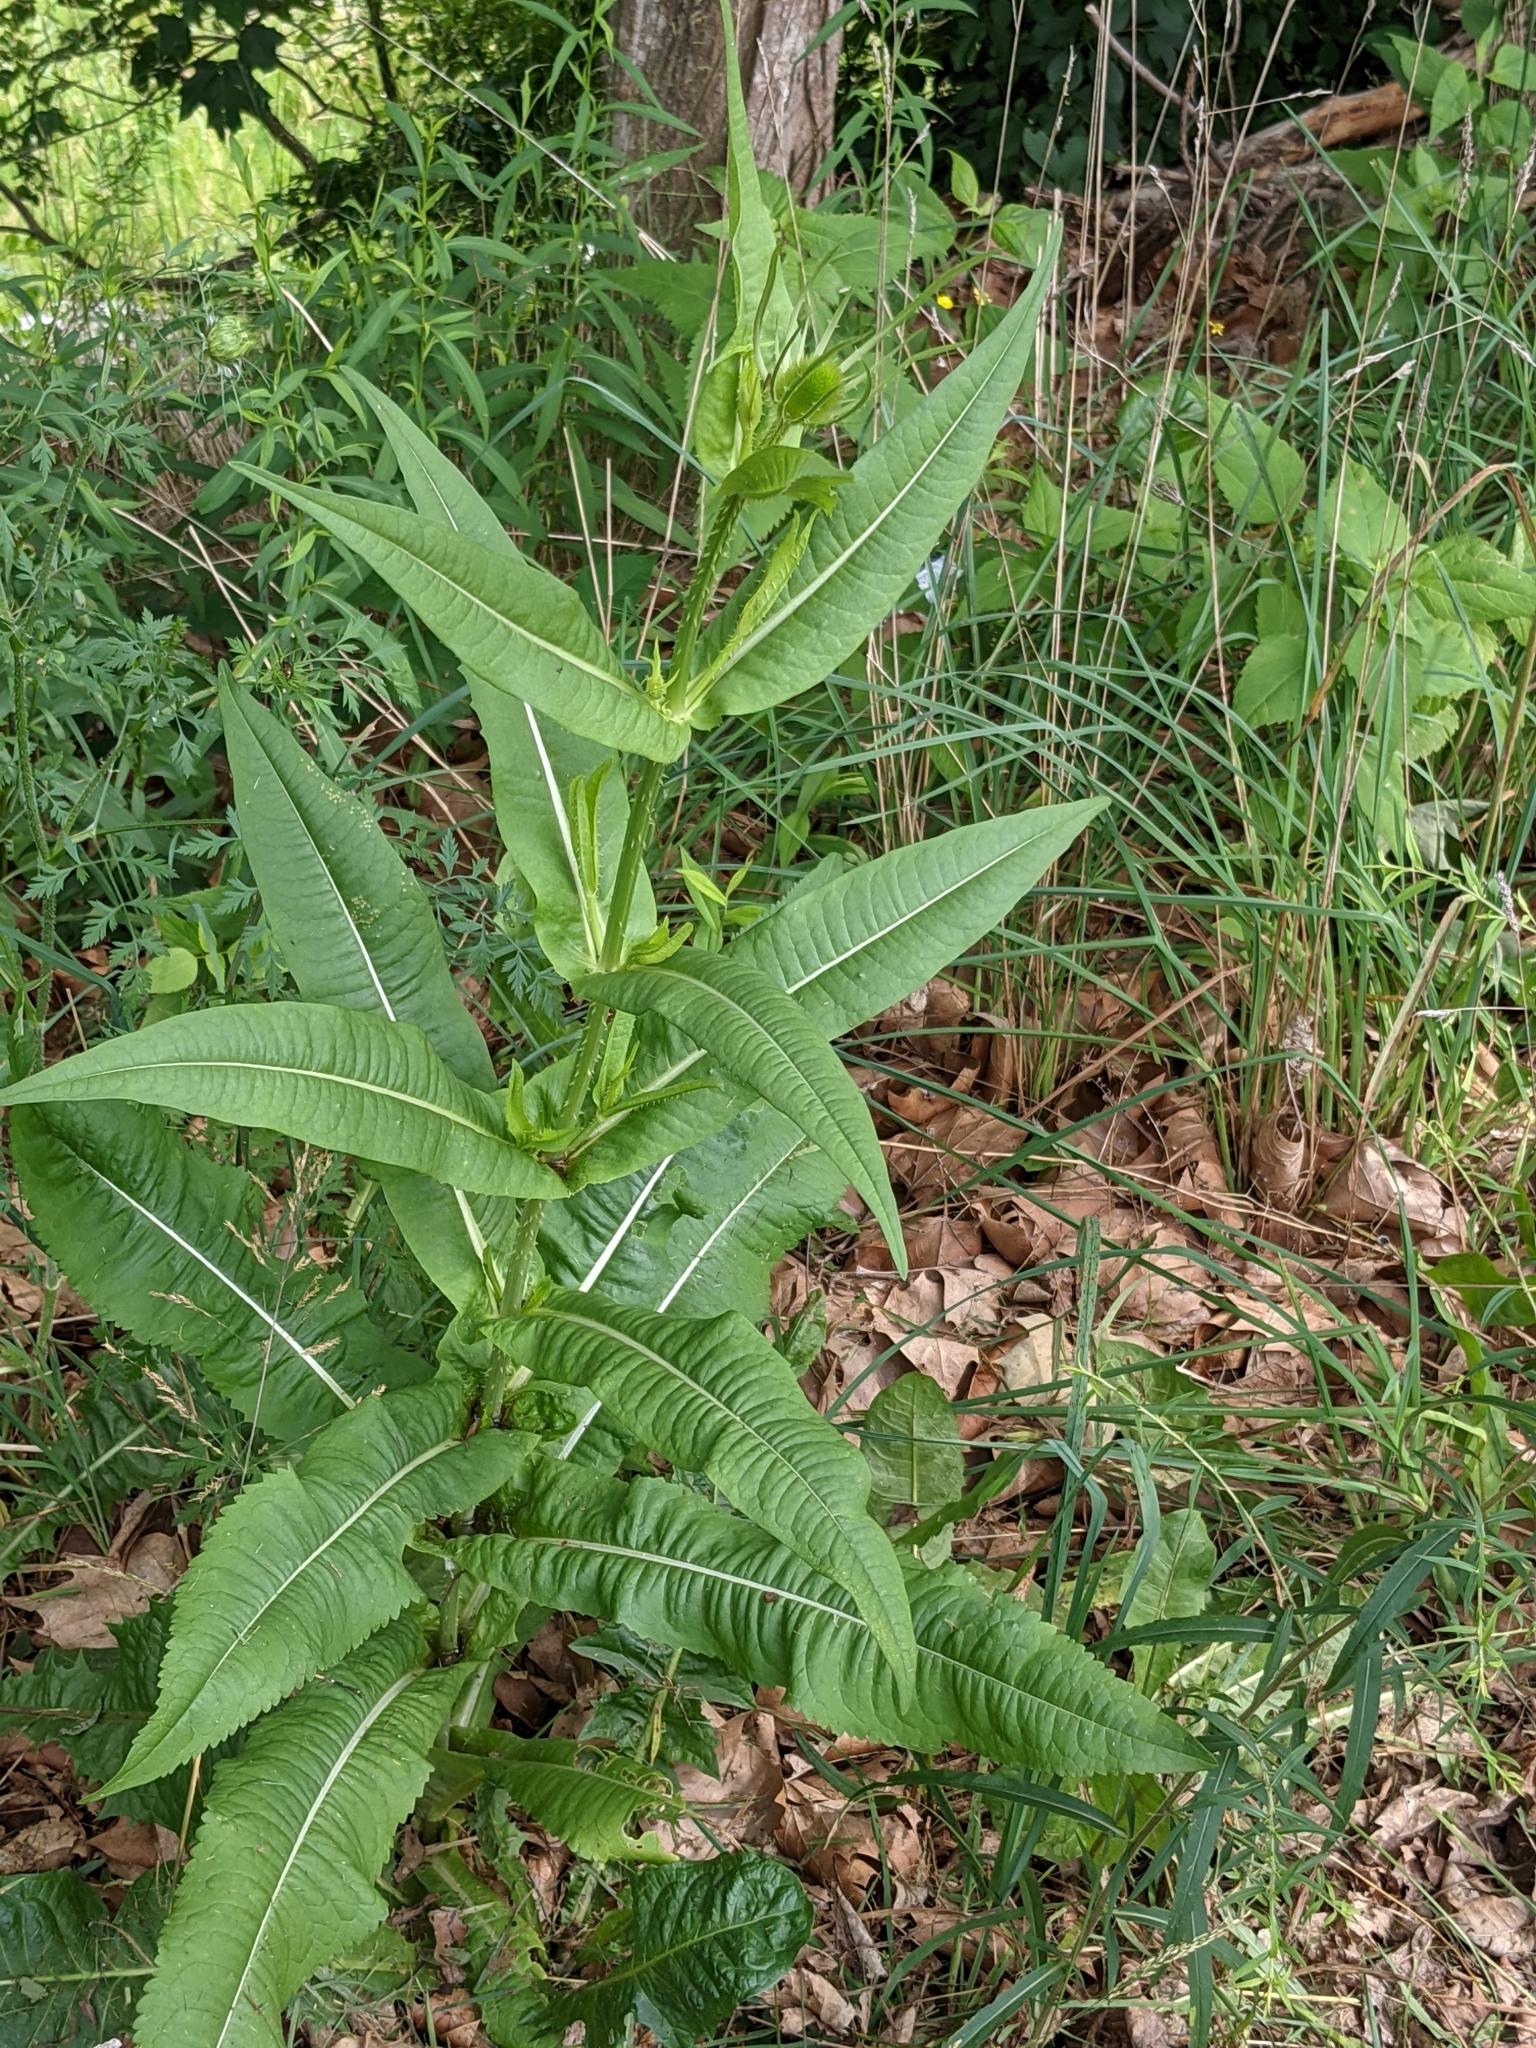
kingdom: Plantae
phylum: Tracheophyta
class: Magnoliopsida
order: Dipsacales
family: Caprifoliaceae
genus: Dipsacus
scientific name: Dipsacus fullonum
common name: Teasel
